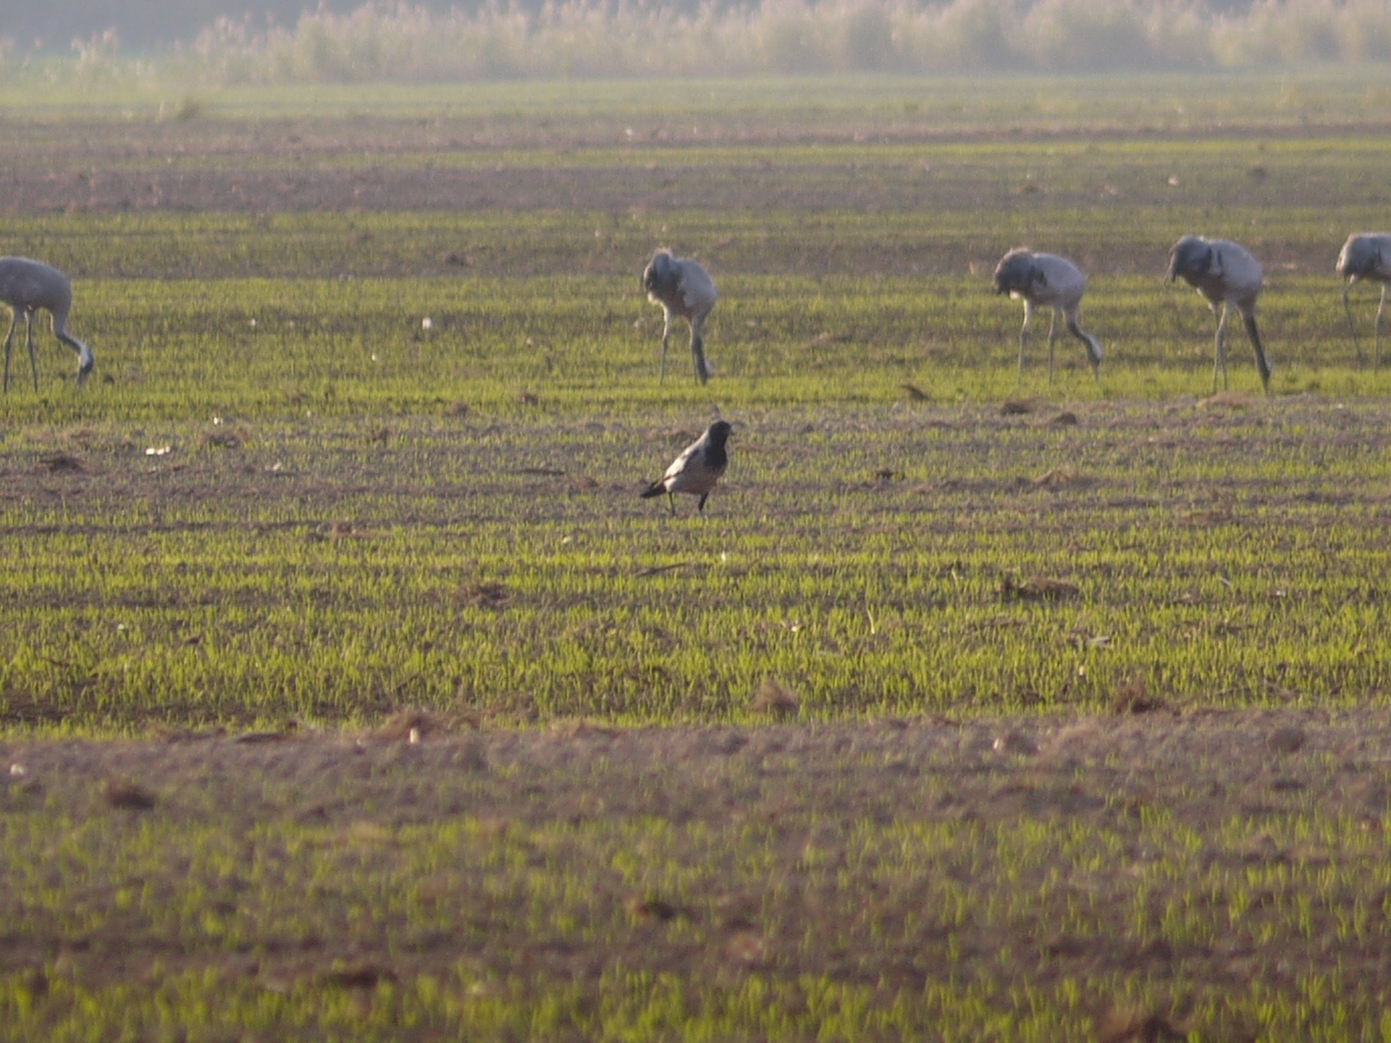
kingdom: Animalia
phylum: Chordata
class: Aves
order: Gruiformes
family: Gruidae
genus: Grus
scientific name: Grus grus
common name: Common crane
